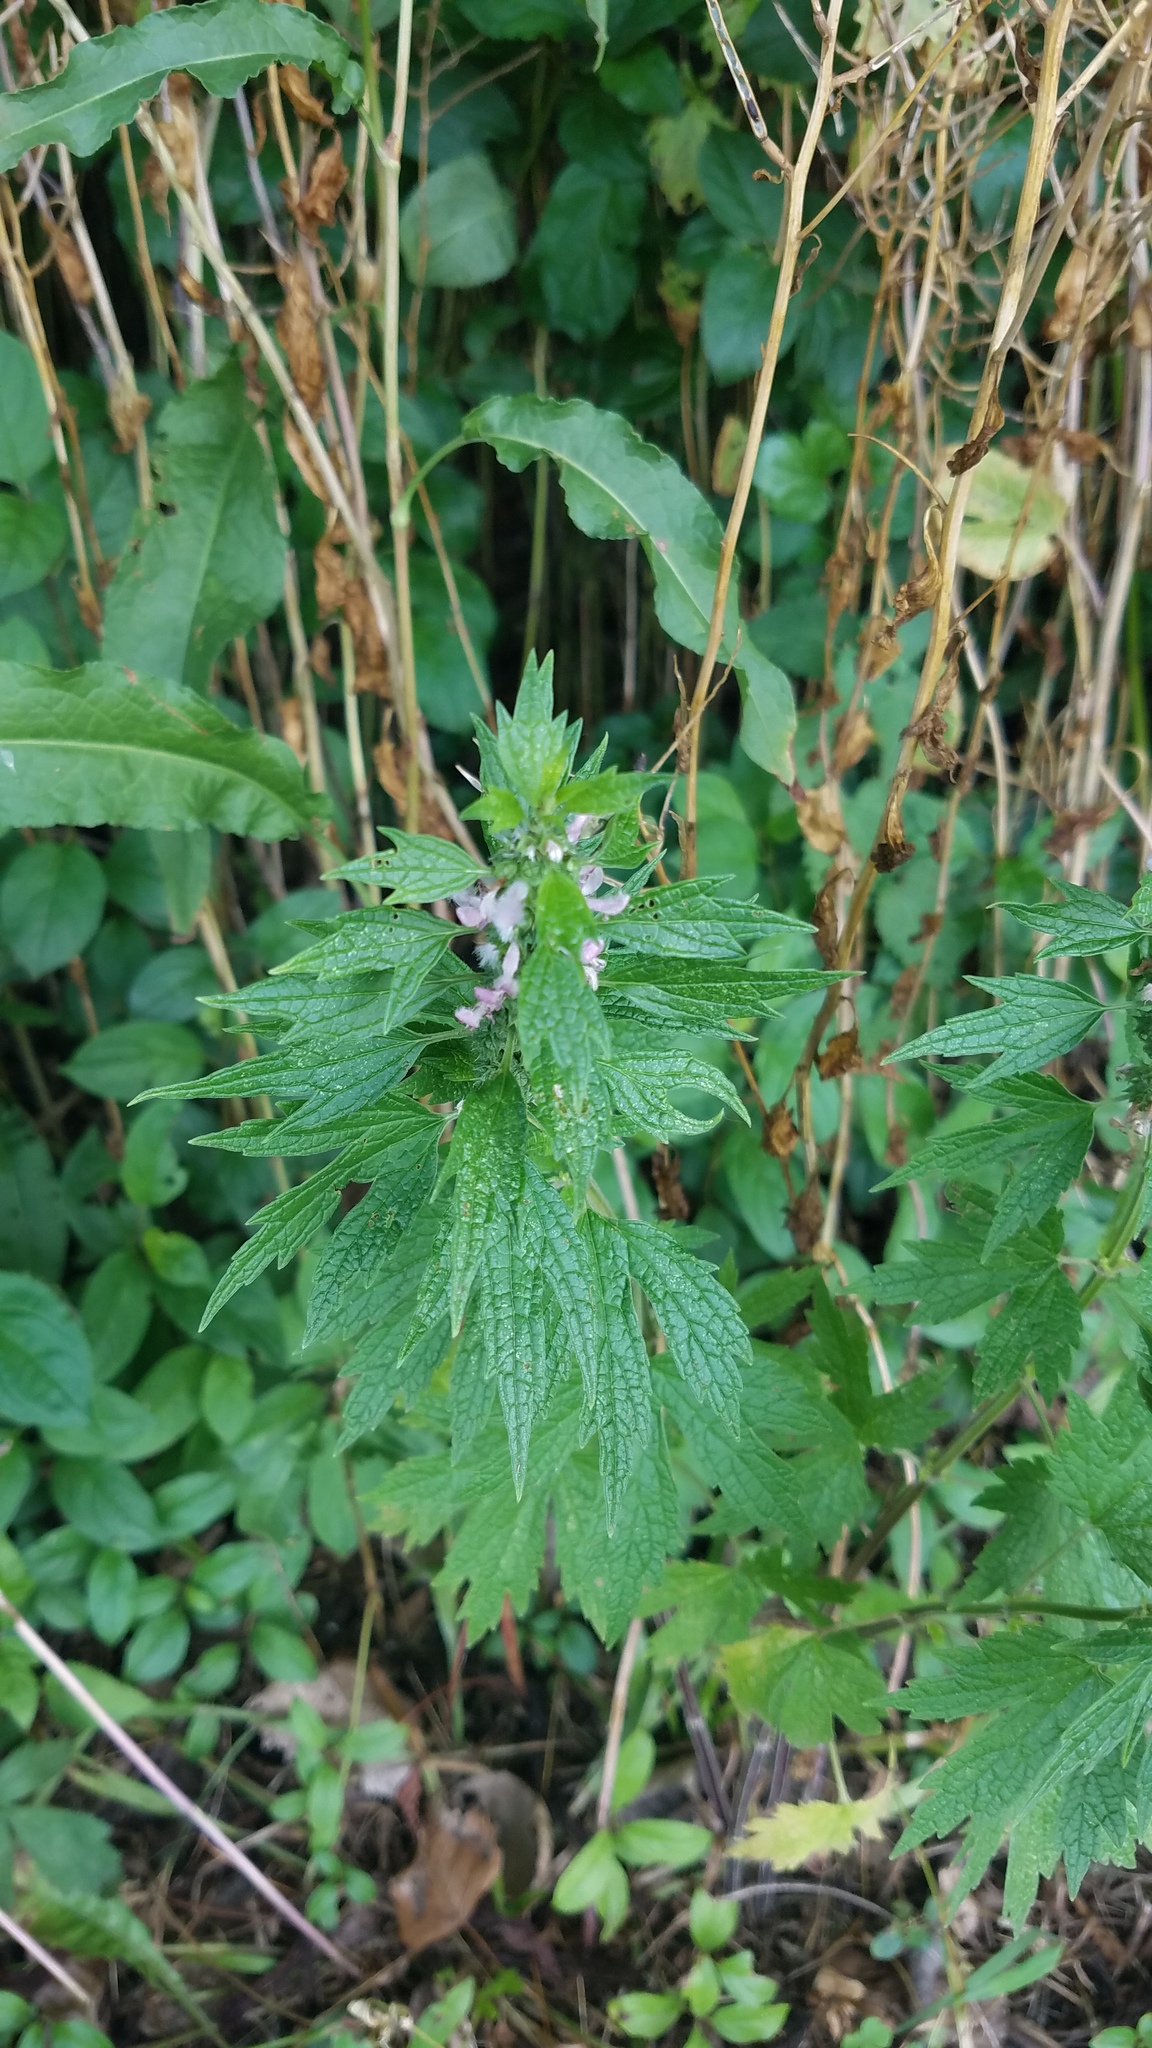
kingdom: Plantae
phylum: Tracheophyta
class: Magnoliopsida
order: Lamiales
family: Lamiaceae
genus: Leonurus
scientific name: Leonurus cardiaca
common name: Motherwort
